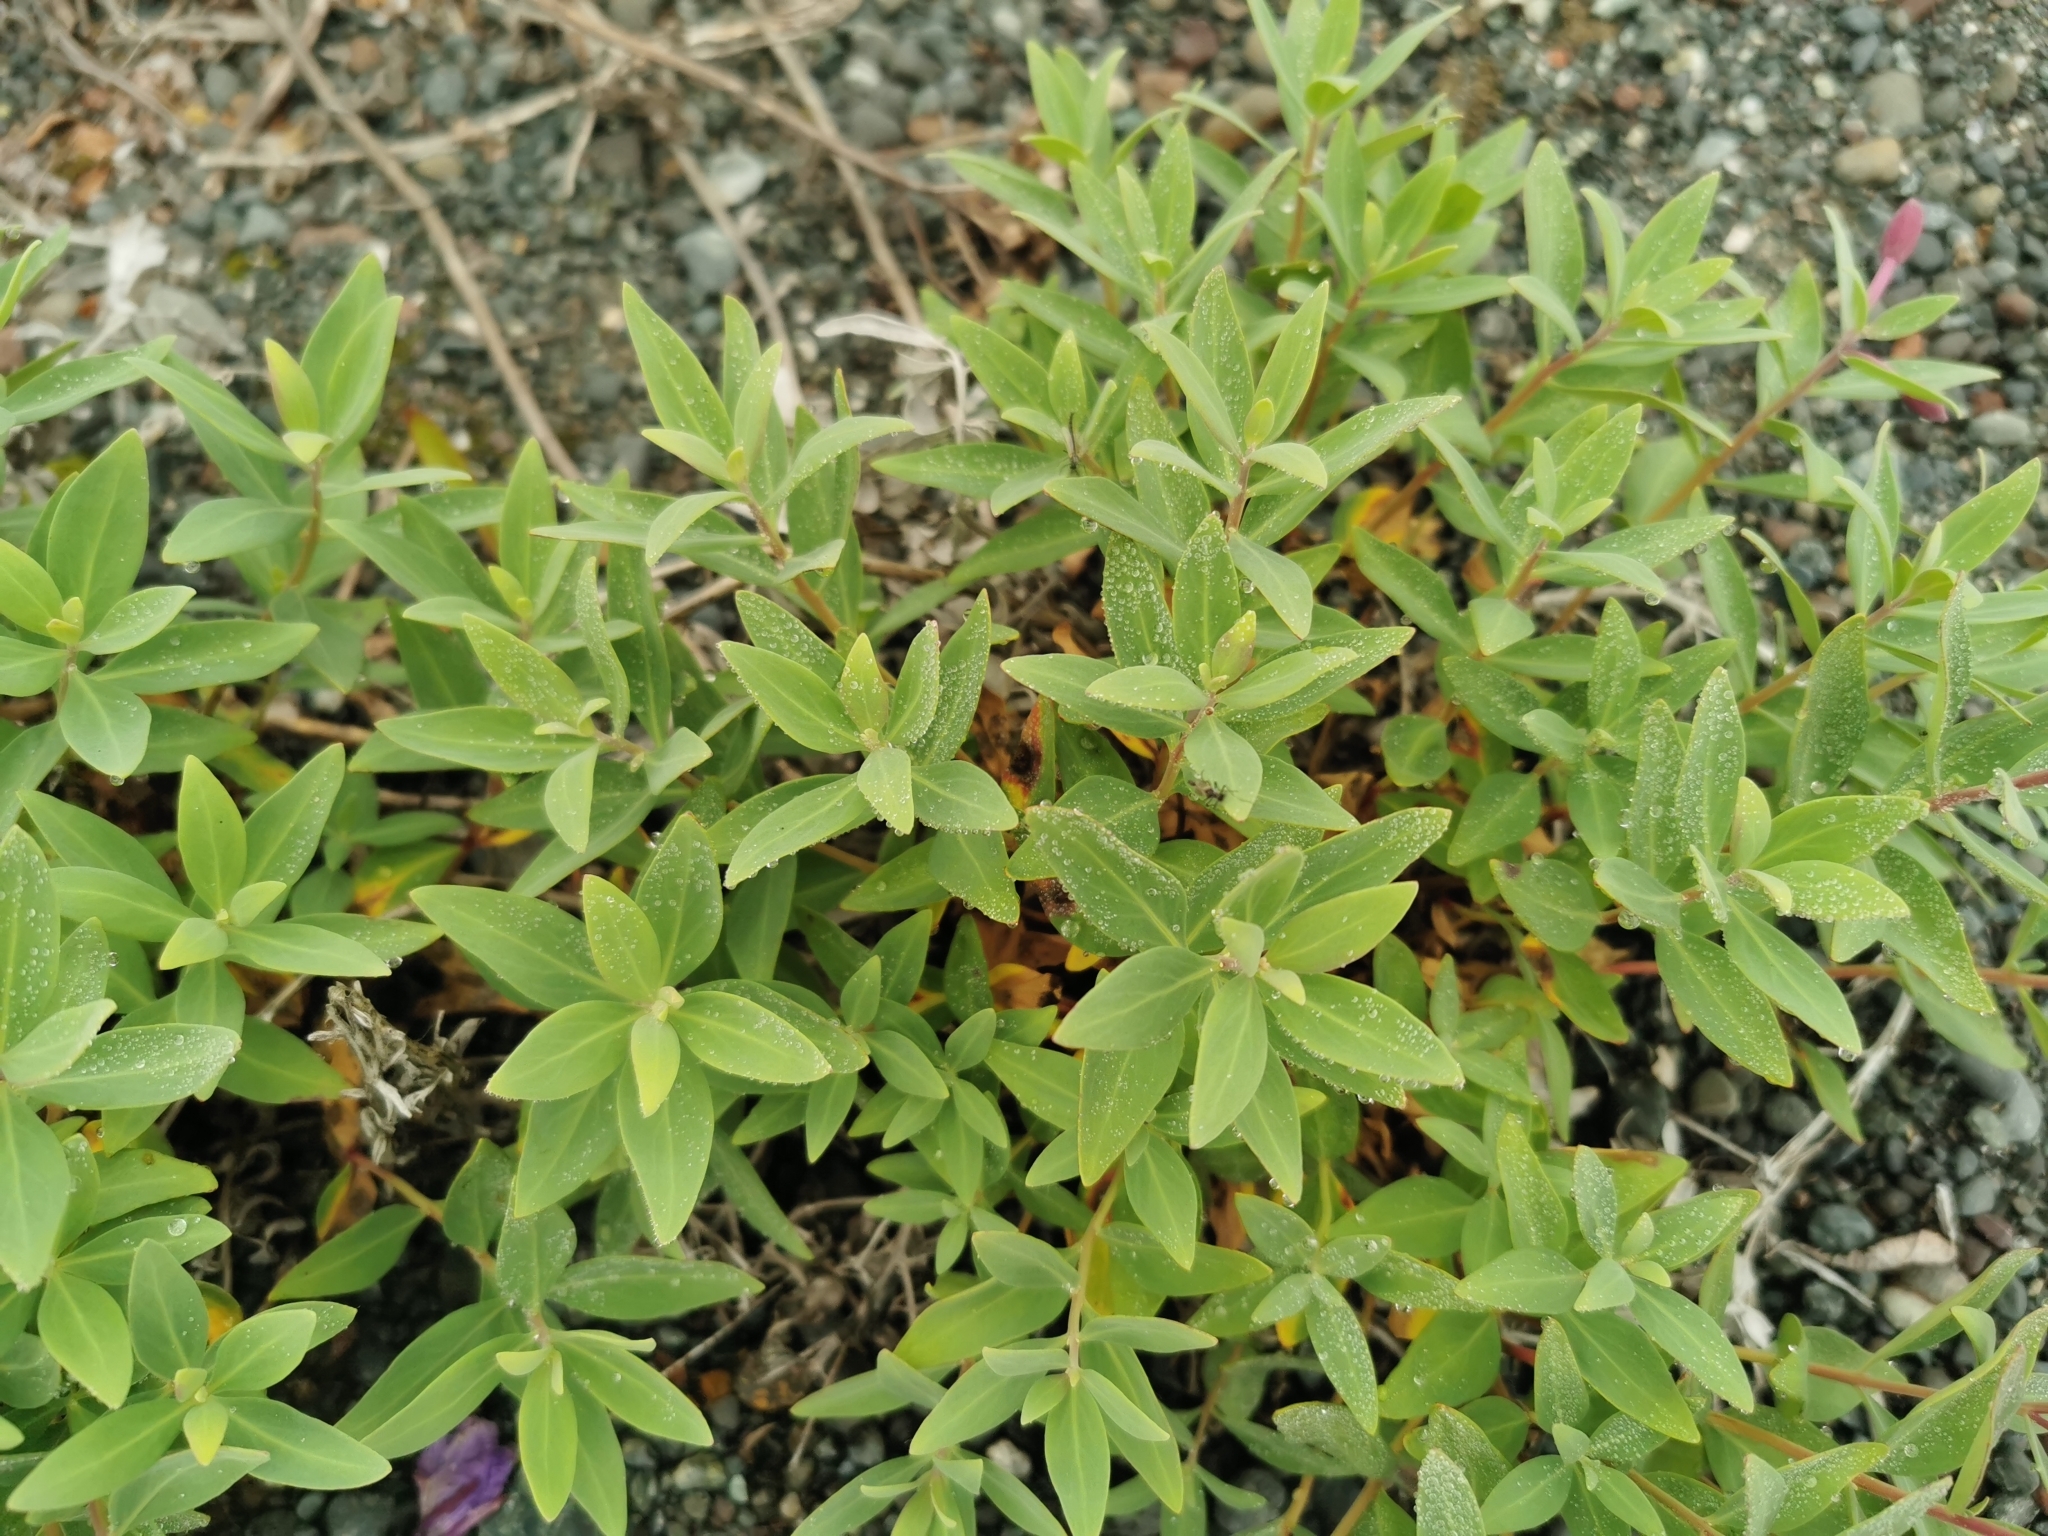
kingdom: Plantae
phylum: Tracheophyta
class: Magnoliopsida
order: Myrtales
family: Onagraceae
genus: Chamaenerion
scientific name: Chamaenerion latifolium
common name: Dwarf fireweed
